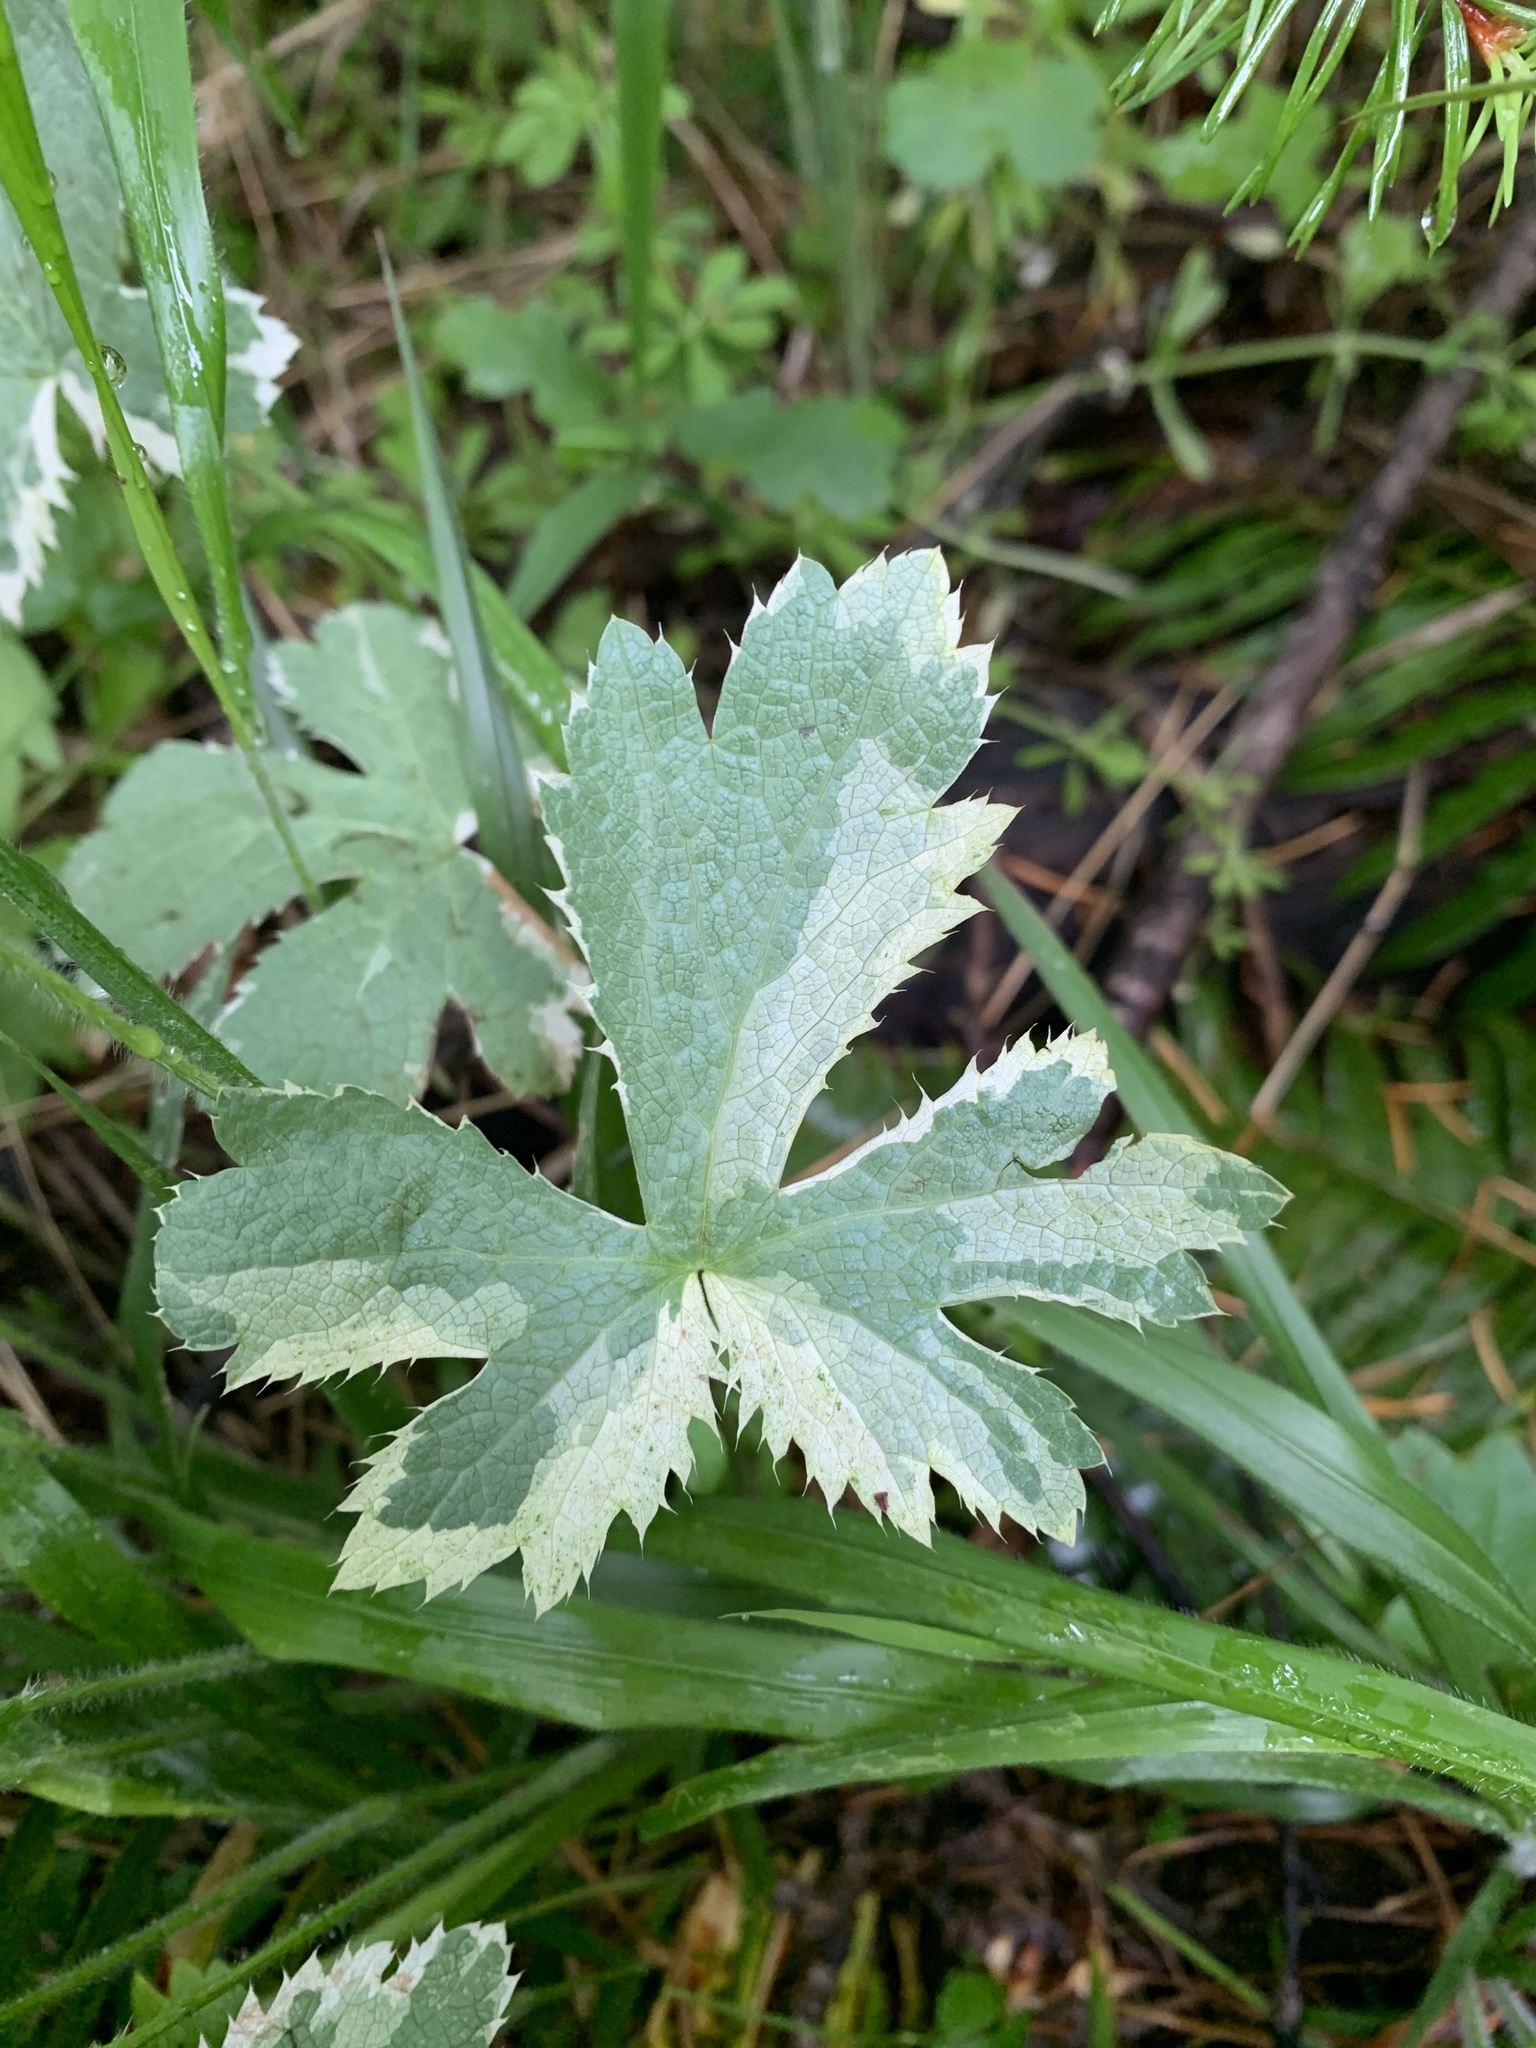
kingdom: Plantae
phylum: Tracheophyta
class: Magnoliopsida
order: Apiales
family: Apiaceae
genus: Sanicula
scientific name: Sanicula crassicaulis
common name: Western snakeroot
